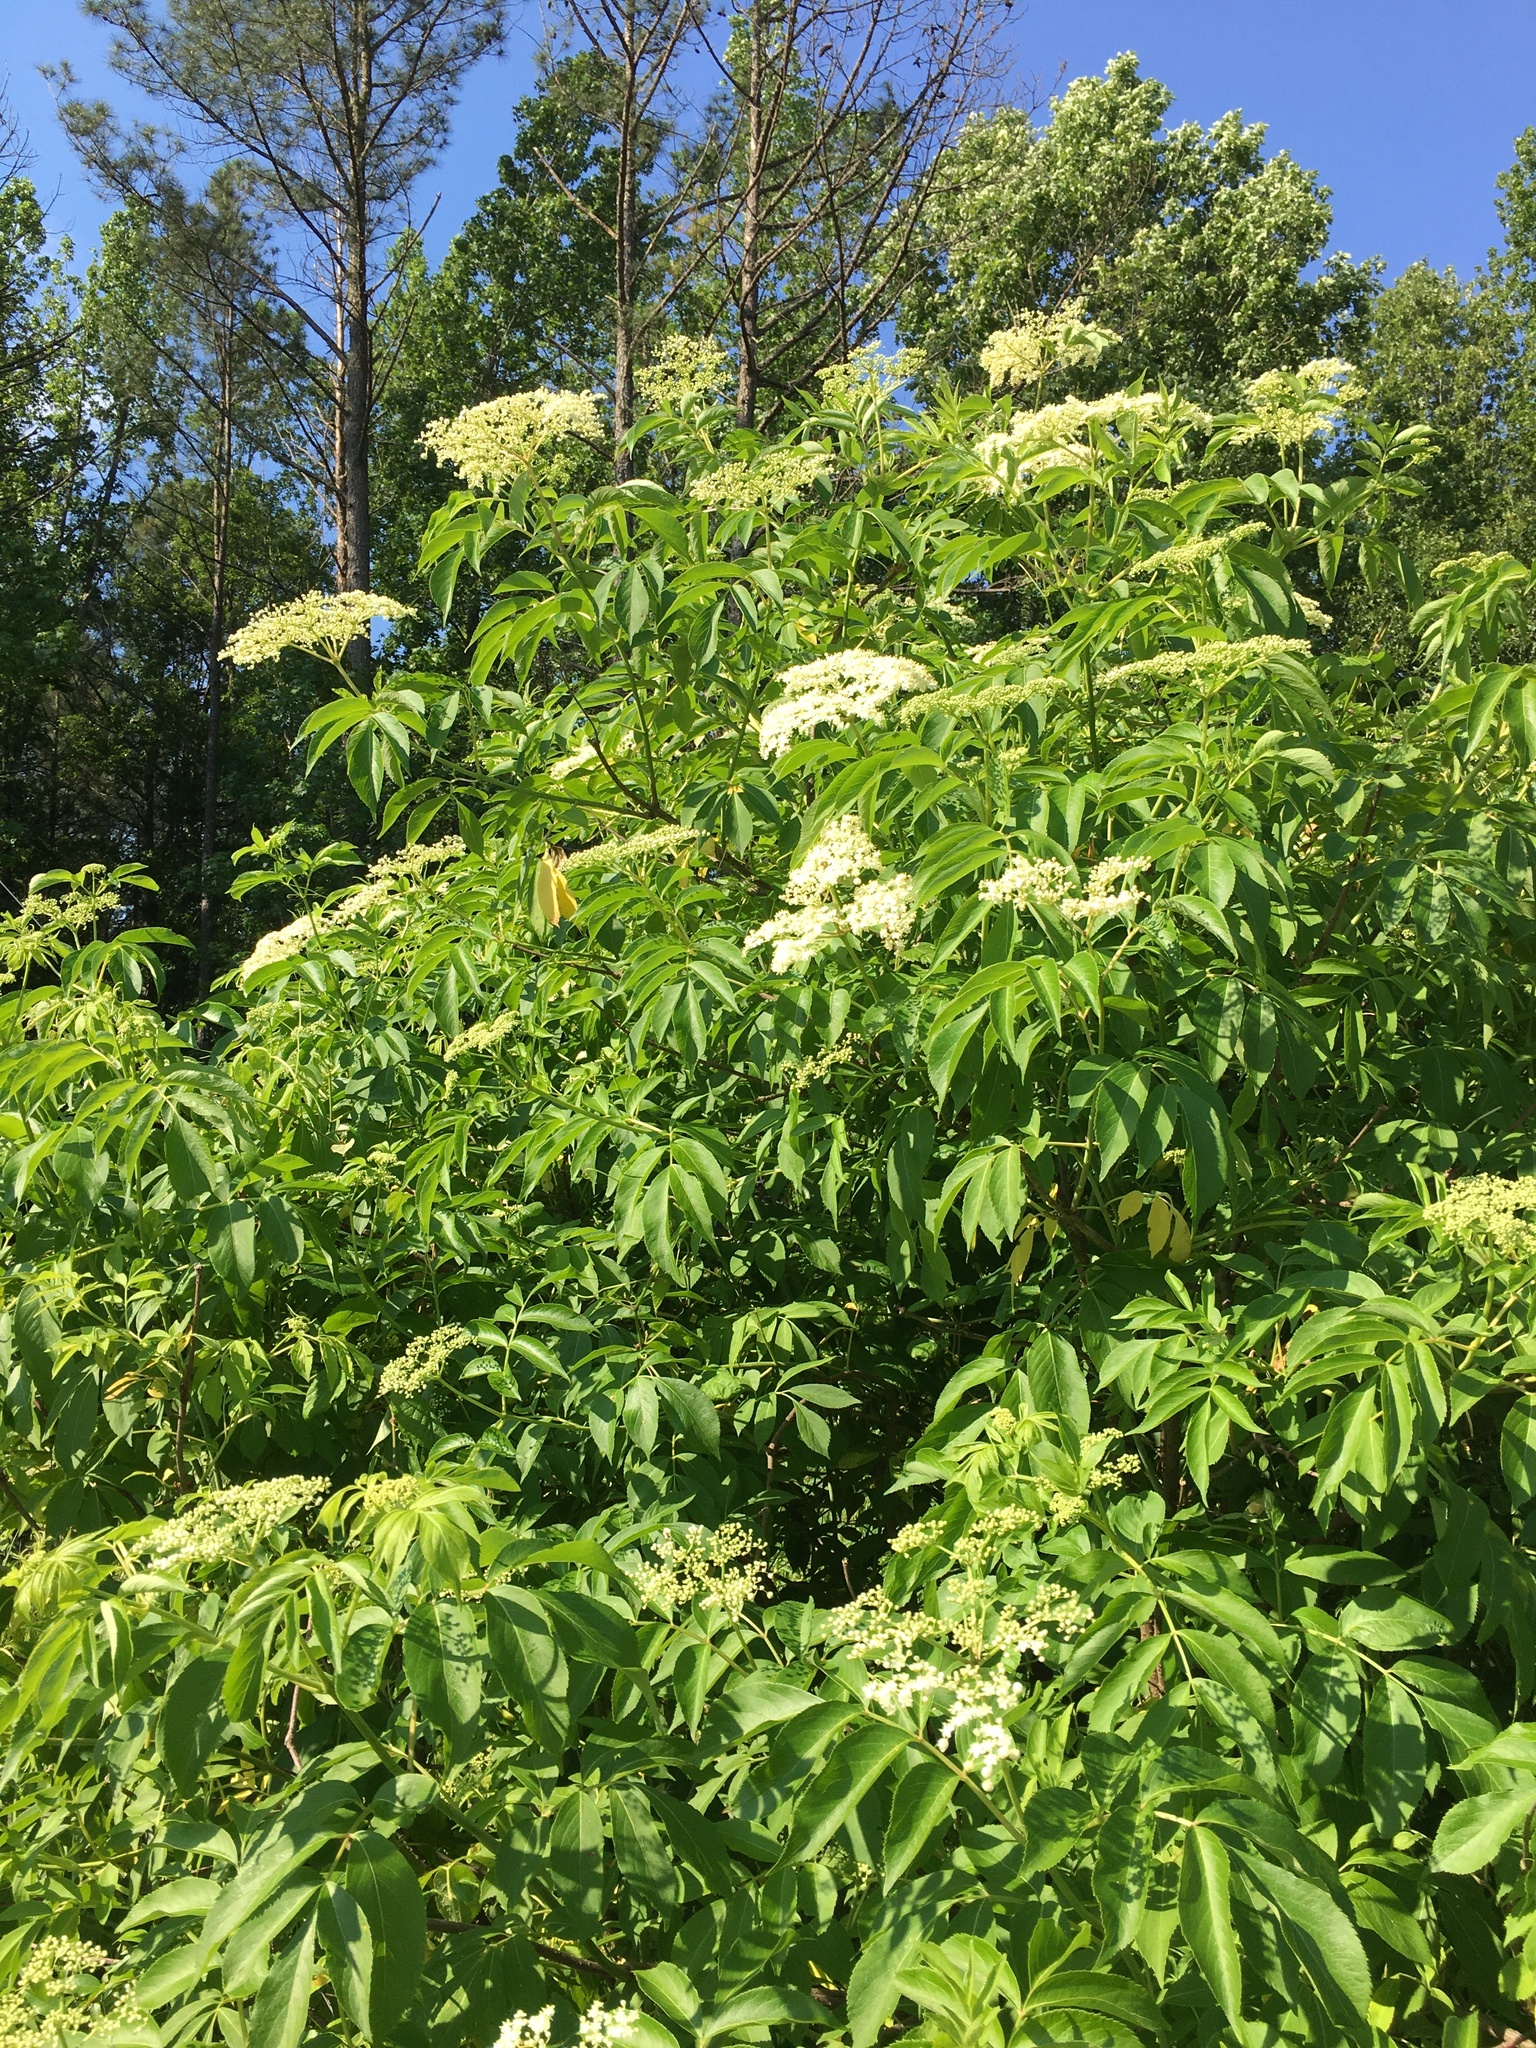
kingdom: Plantae
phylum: Tracheophyta
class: Magnoliopsida
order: Dipsacales
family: Viburnaceae
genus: Sambucus
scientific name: Sambucus canadensis
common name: American elder
